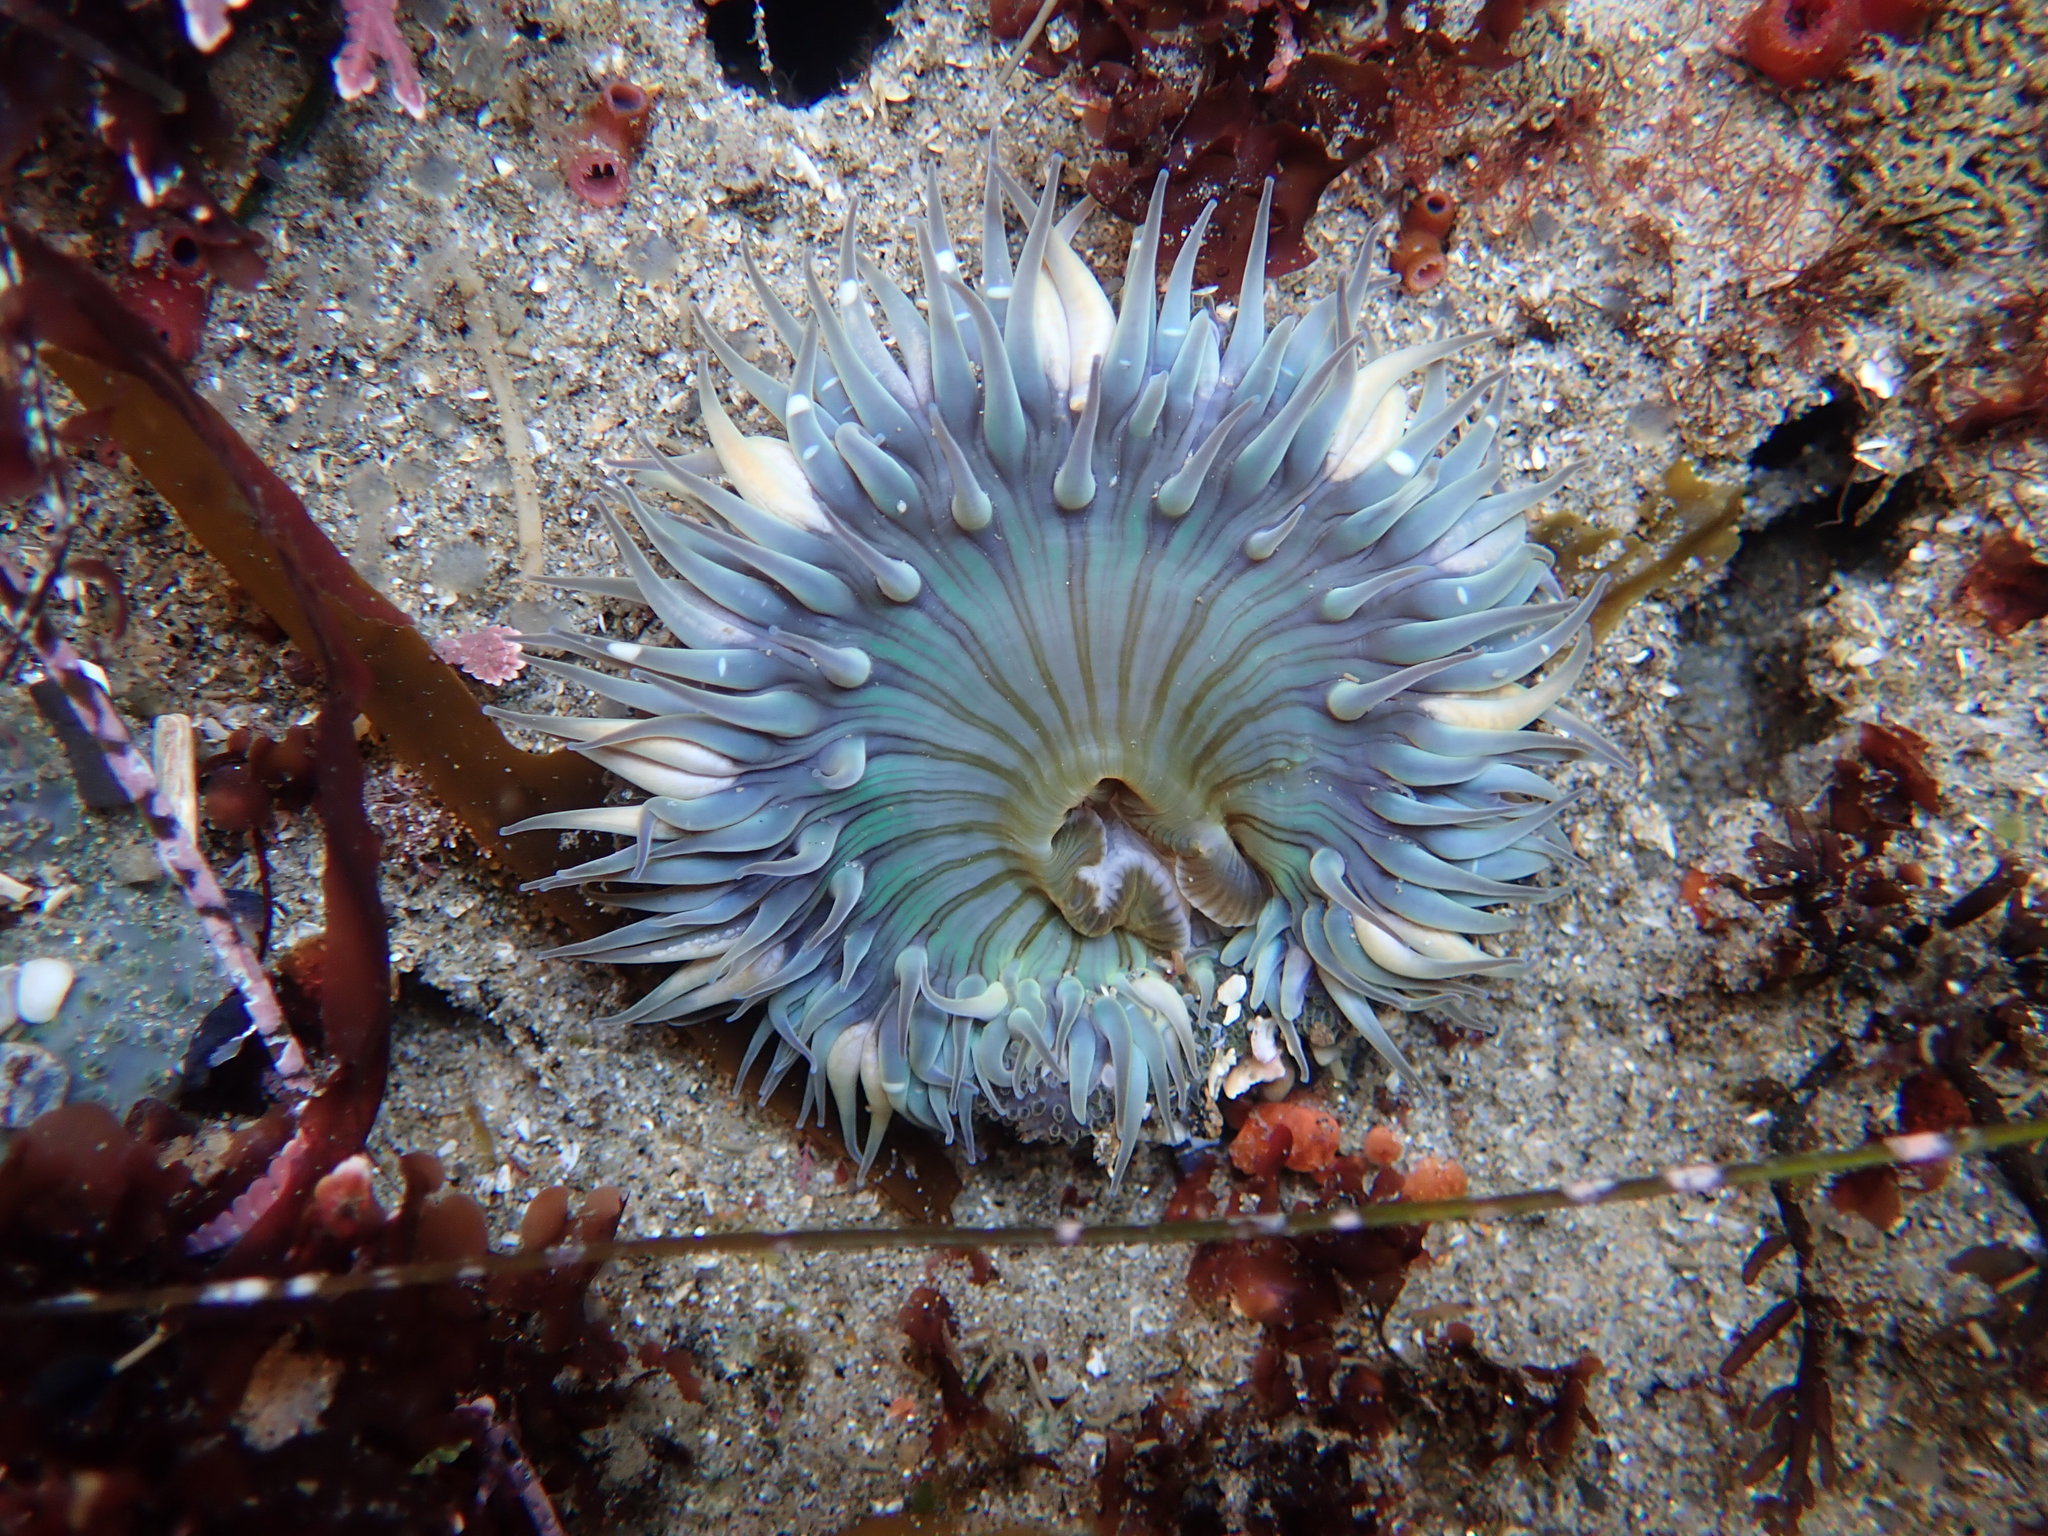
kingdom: Animalia
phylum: Cnidaria
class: Anthozoa
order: Actiniaria
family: Actiniidae
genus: Anthopleura
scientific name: Anthopleura sola
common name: Sun anemone
